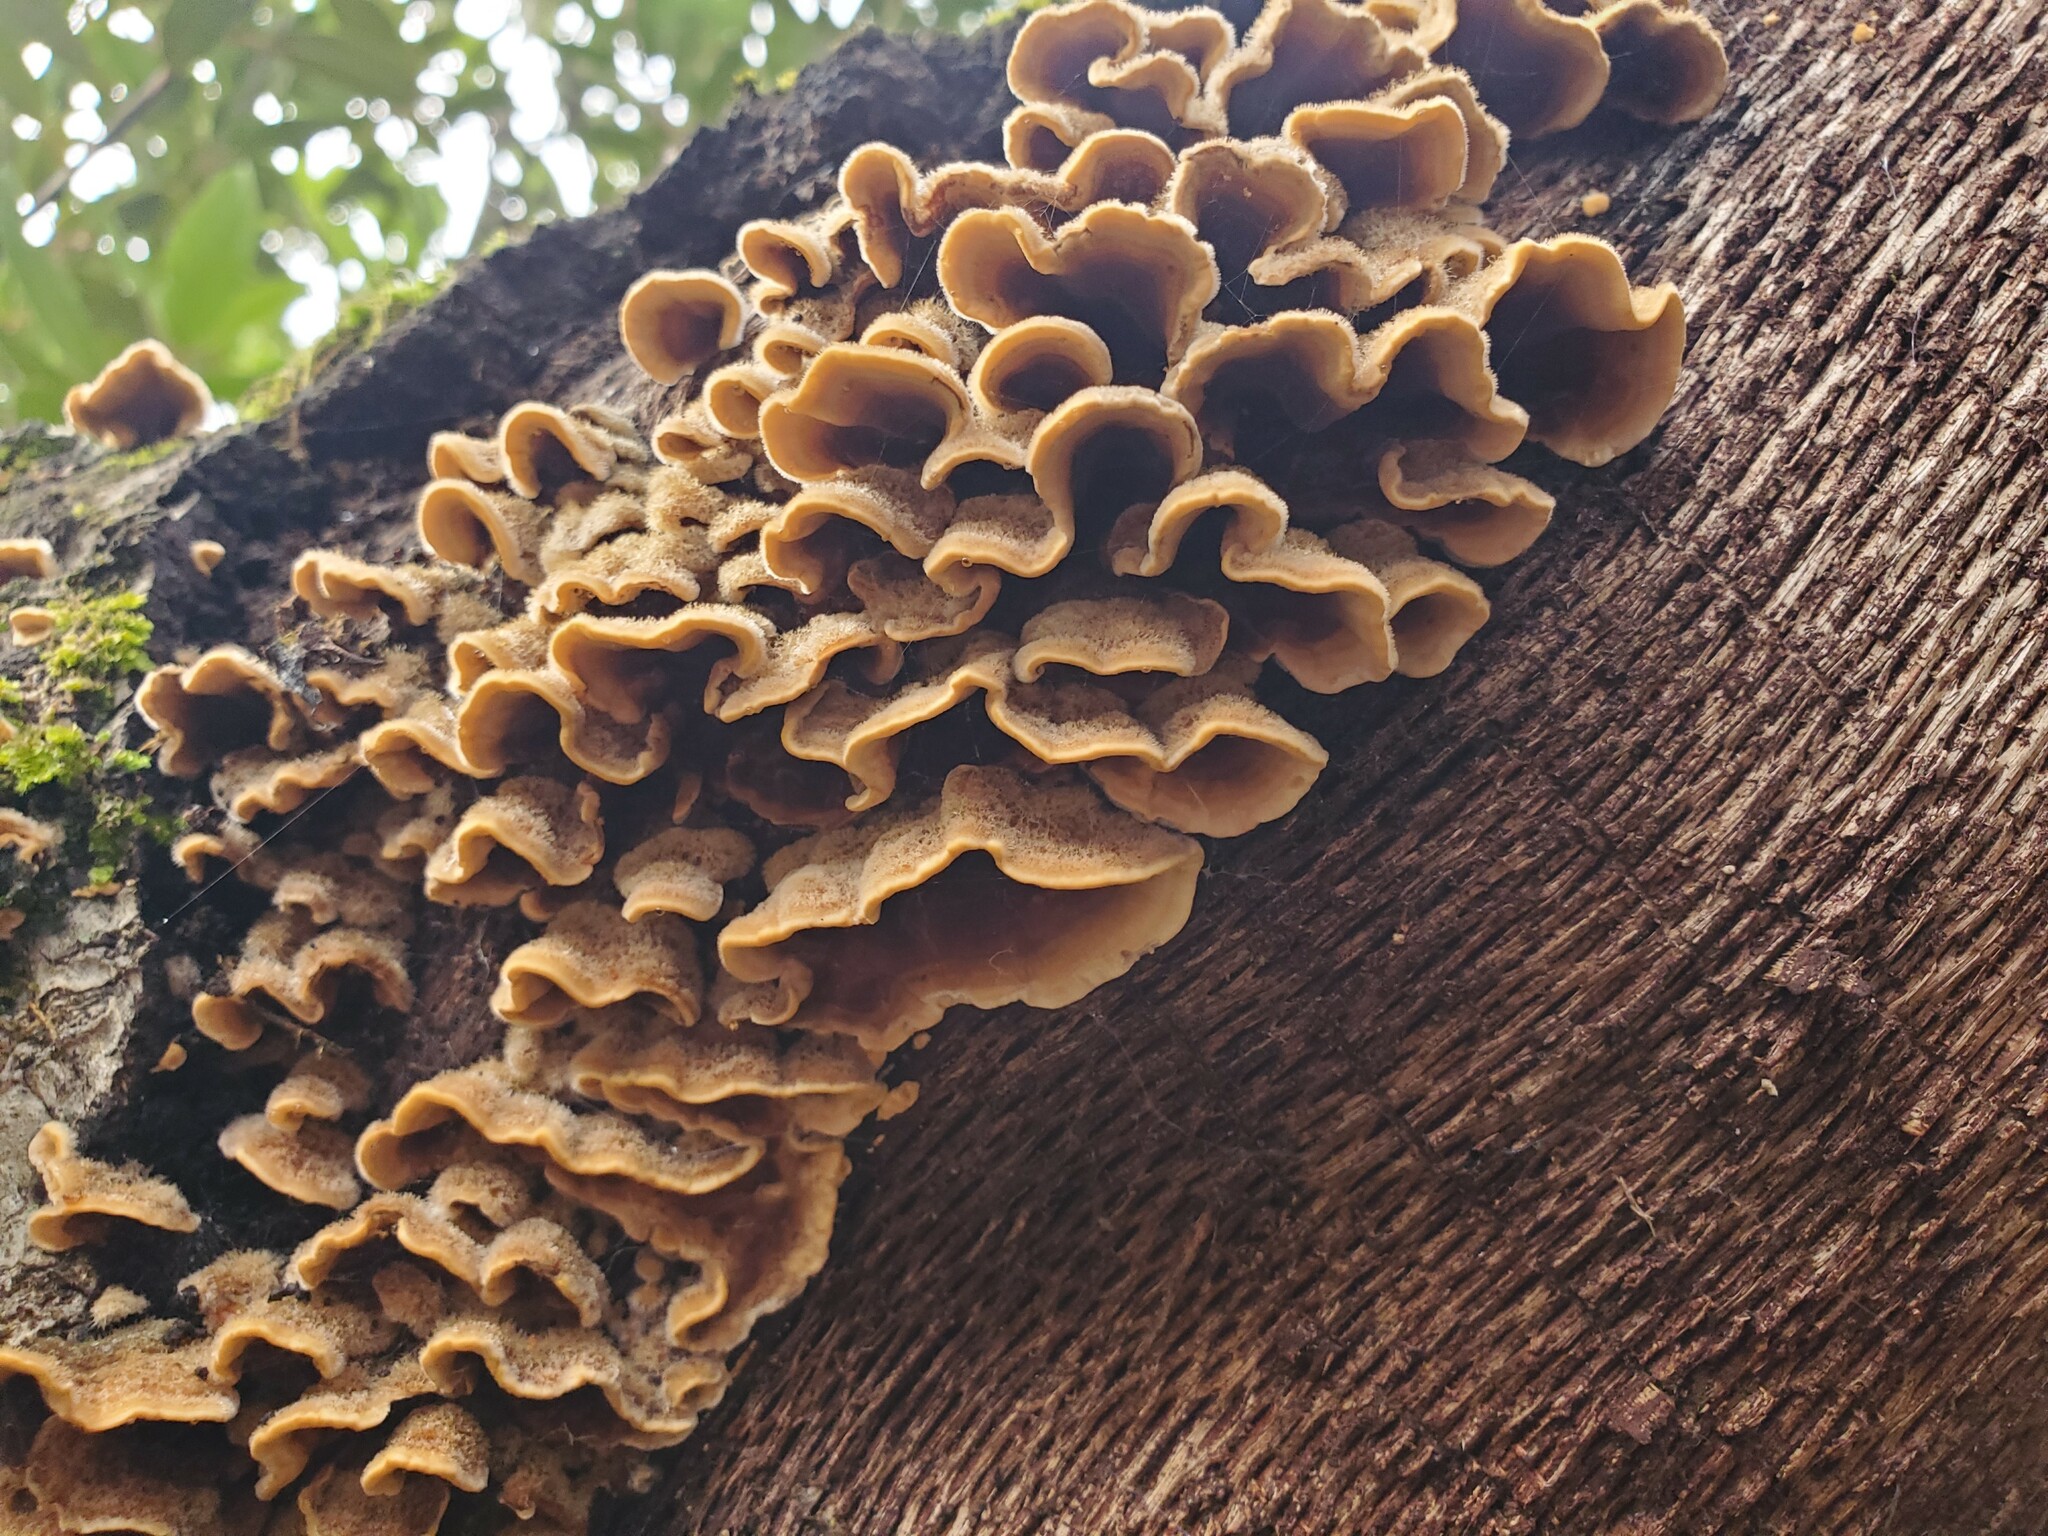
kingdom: Fungi
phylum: Basidiomycota
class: Agaricomycetes
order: Russulales
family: Stereaceae
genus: Stereum
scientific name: Stereum hirsutum
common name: Hairy curtain crust
